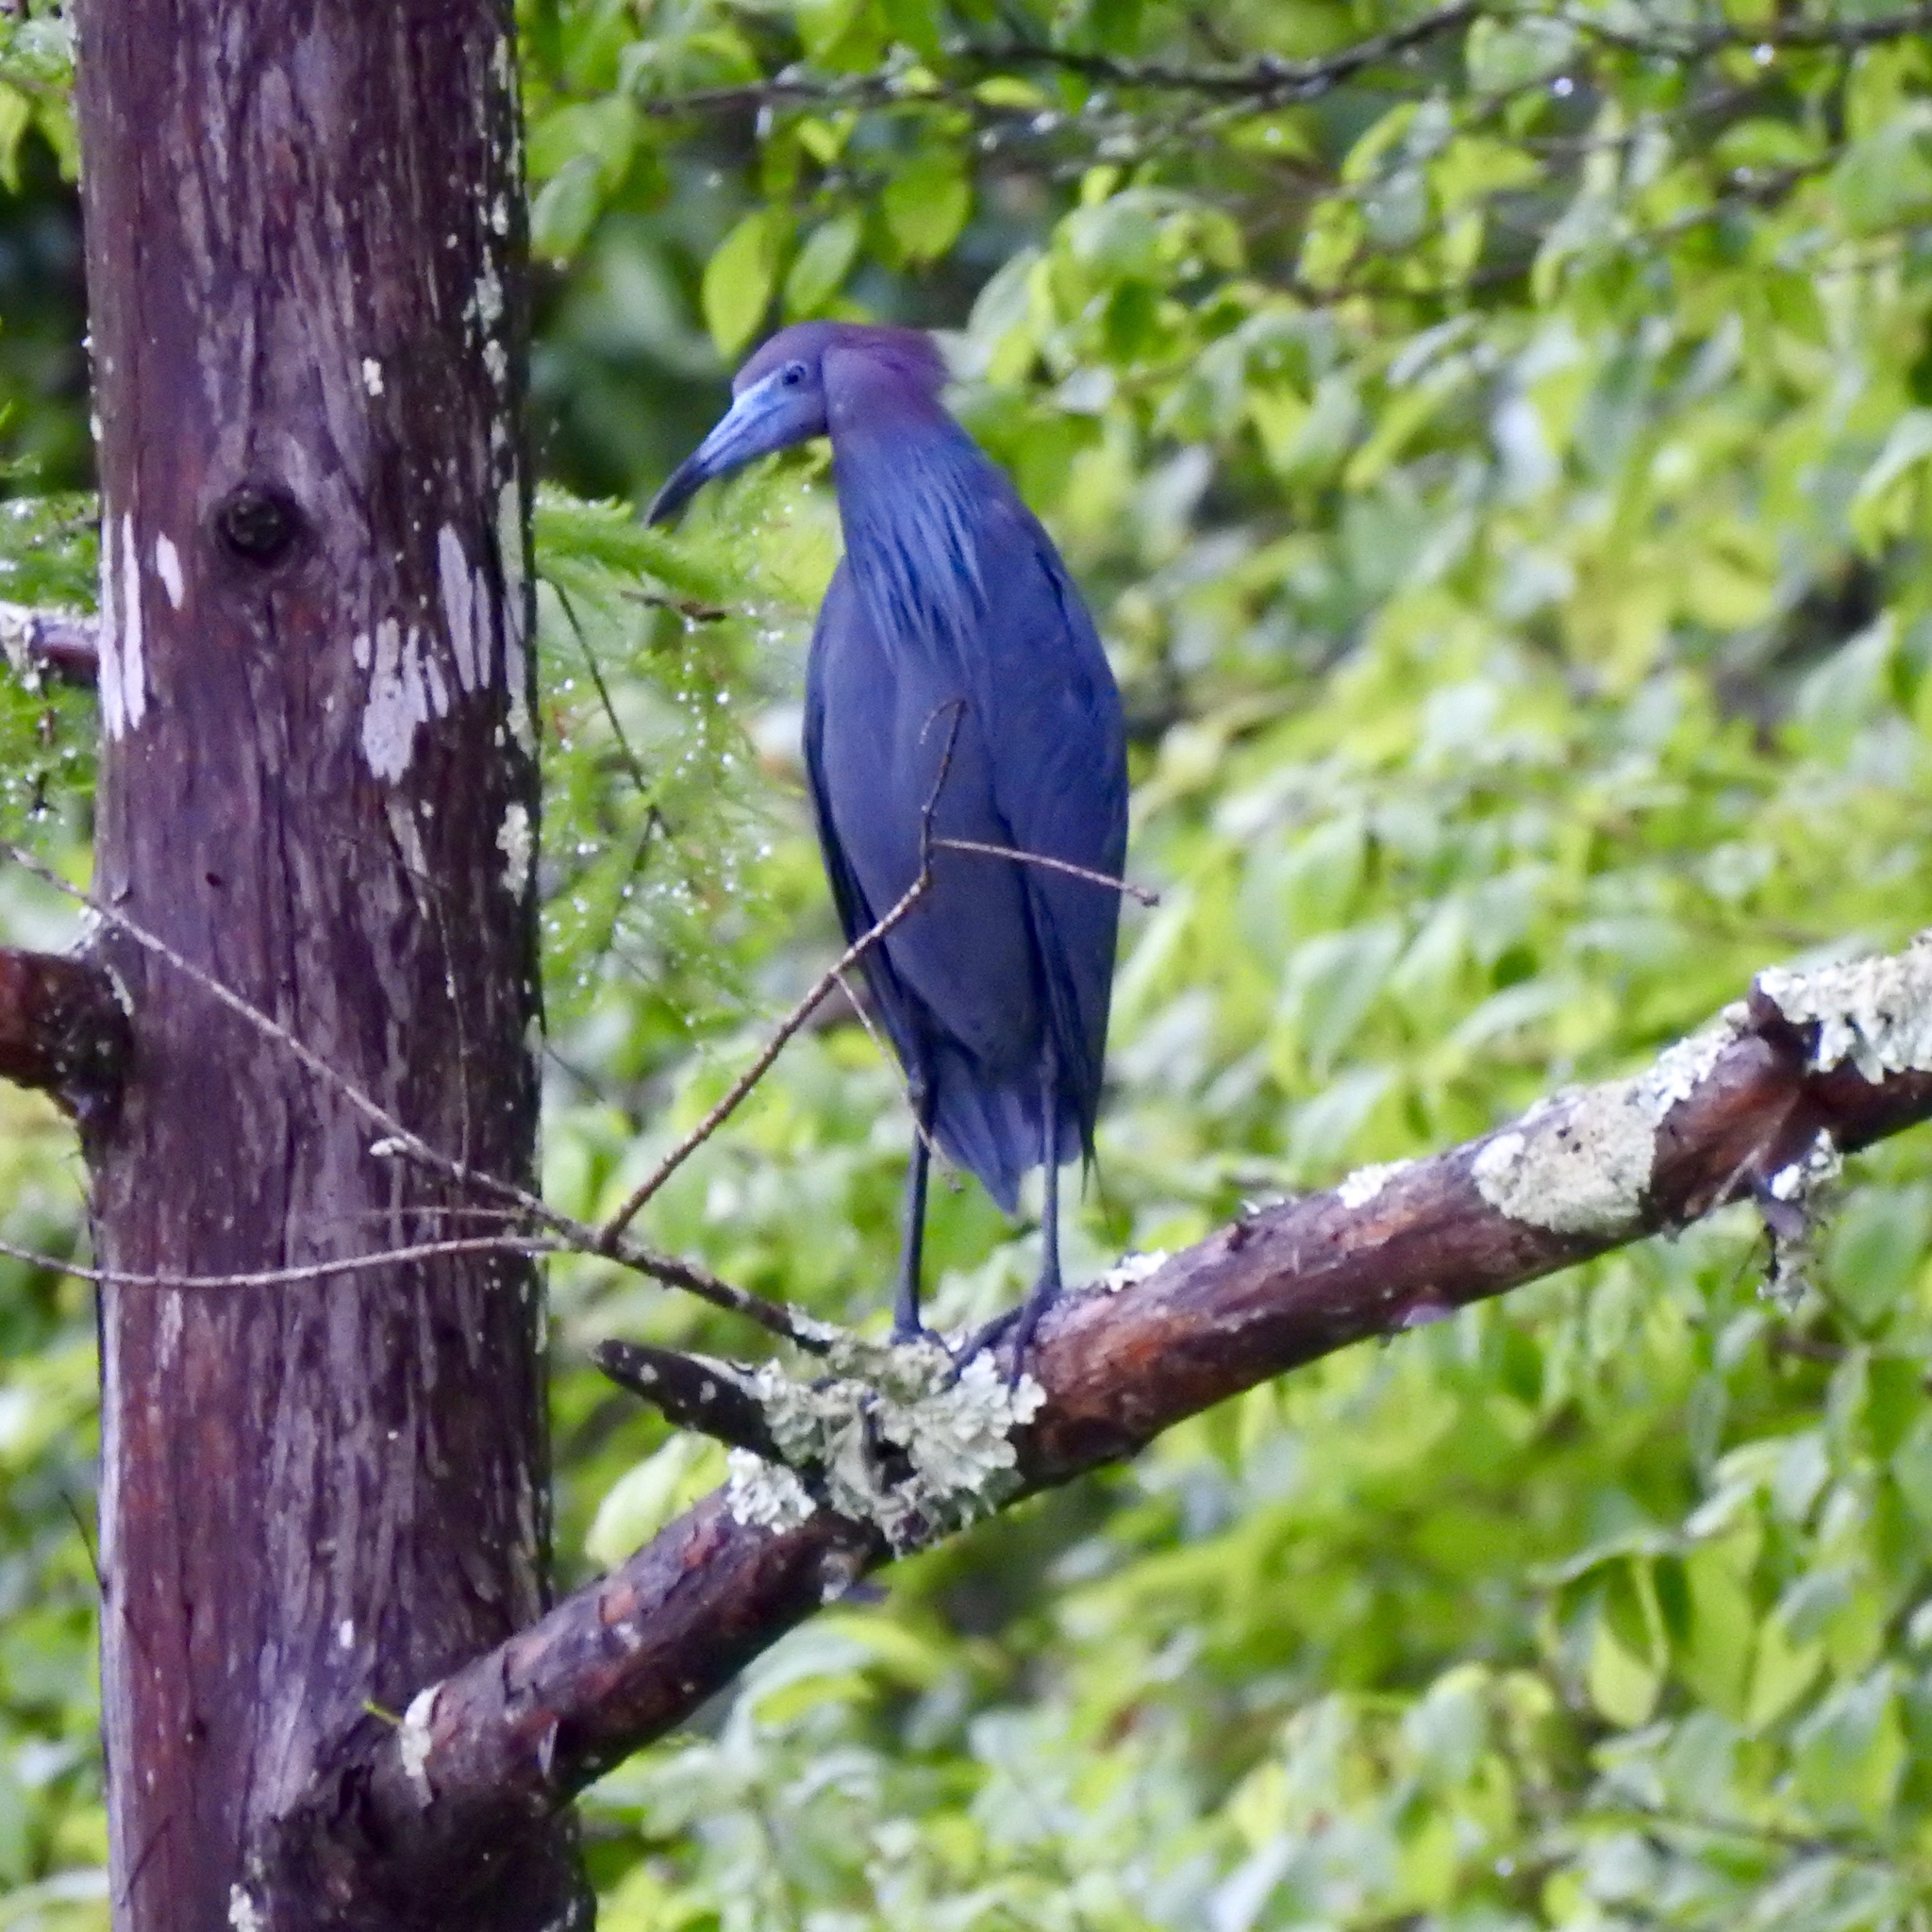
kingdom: Animalia
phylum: Chordata
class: Aves
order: Pelecaniformes
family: Ardeidae
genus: Egretta
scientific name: Egretta caerulea
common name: Little blue heron
